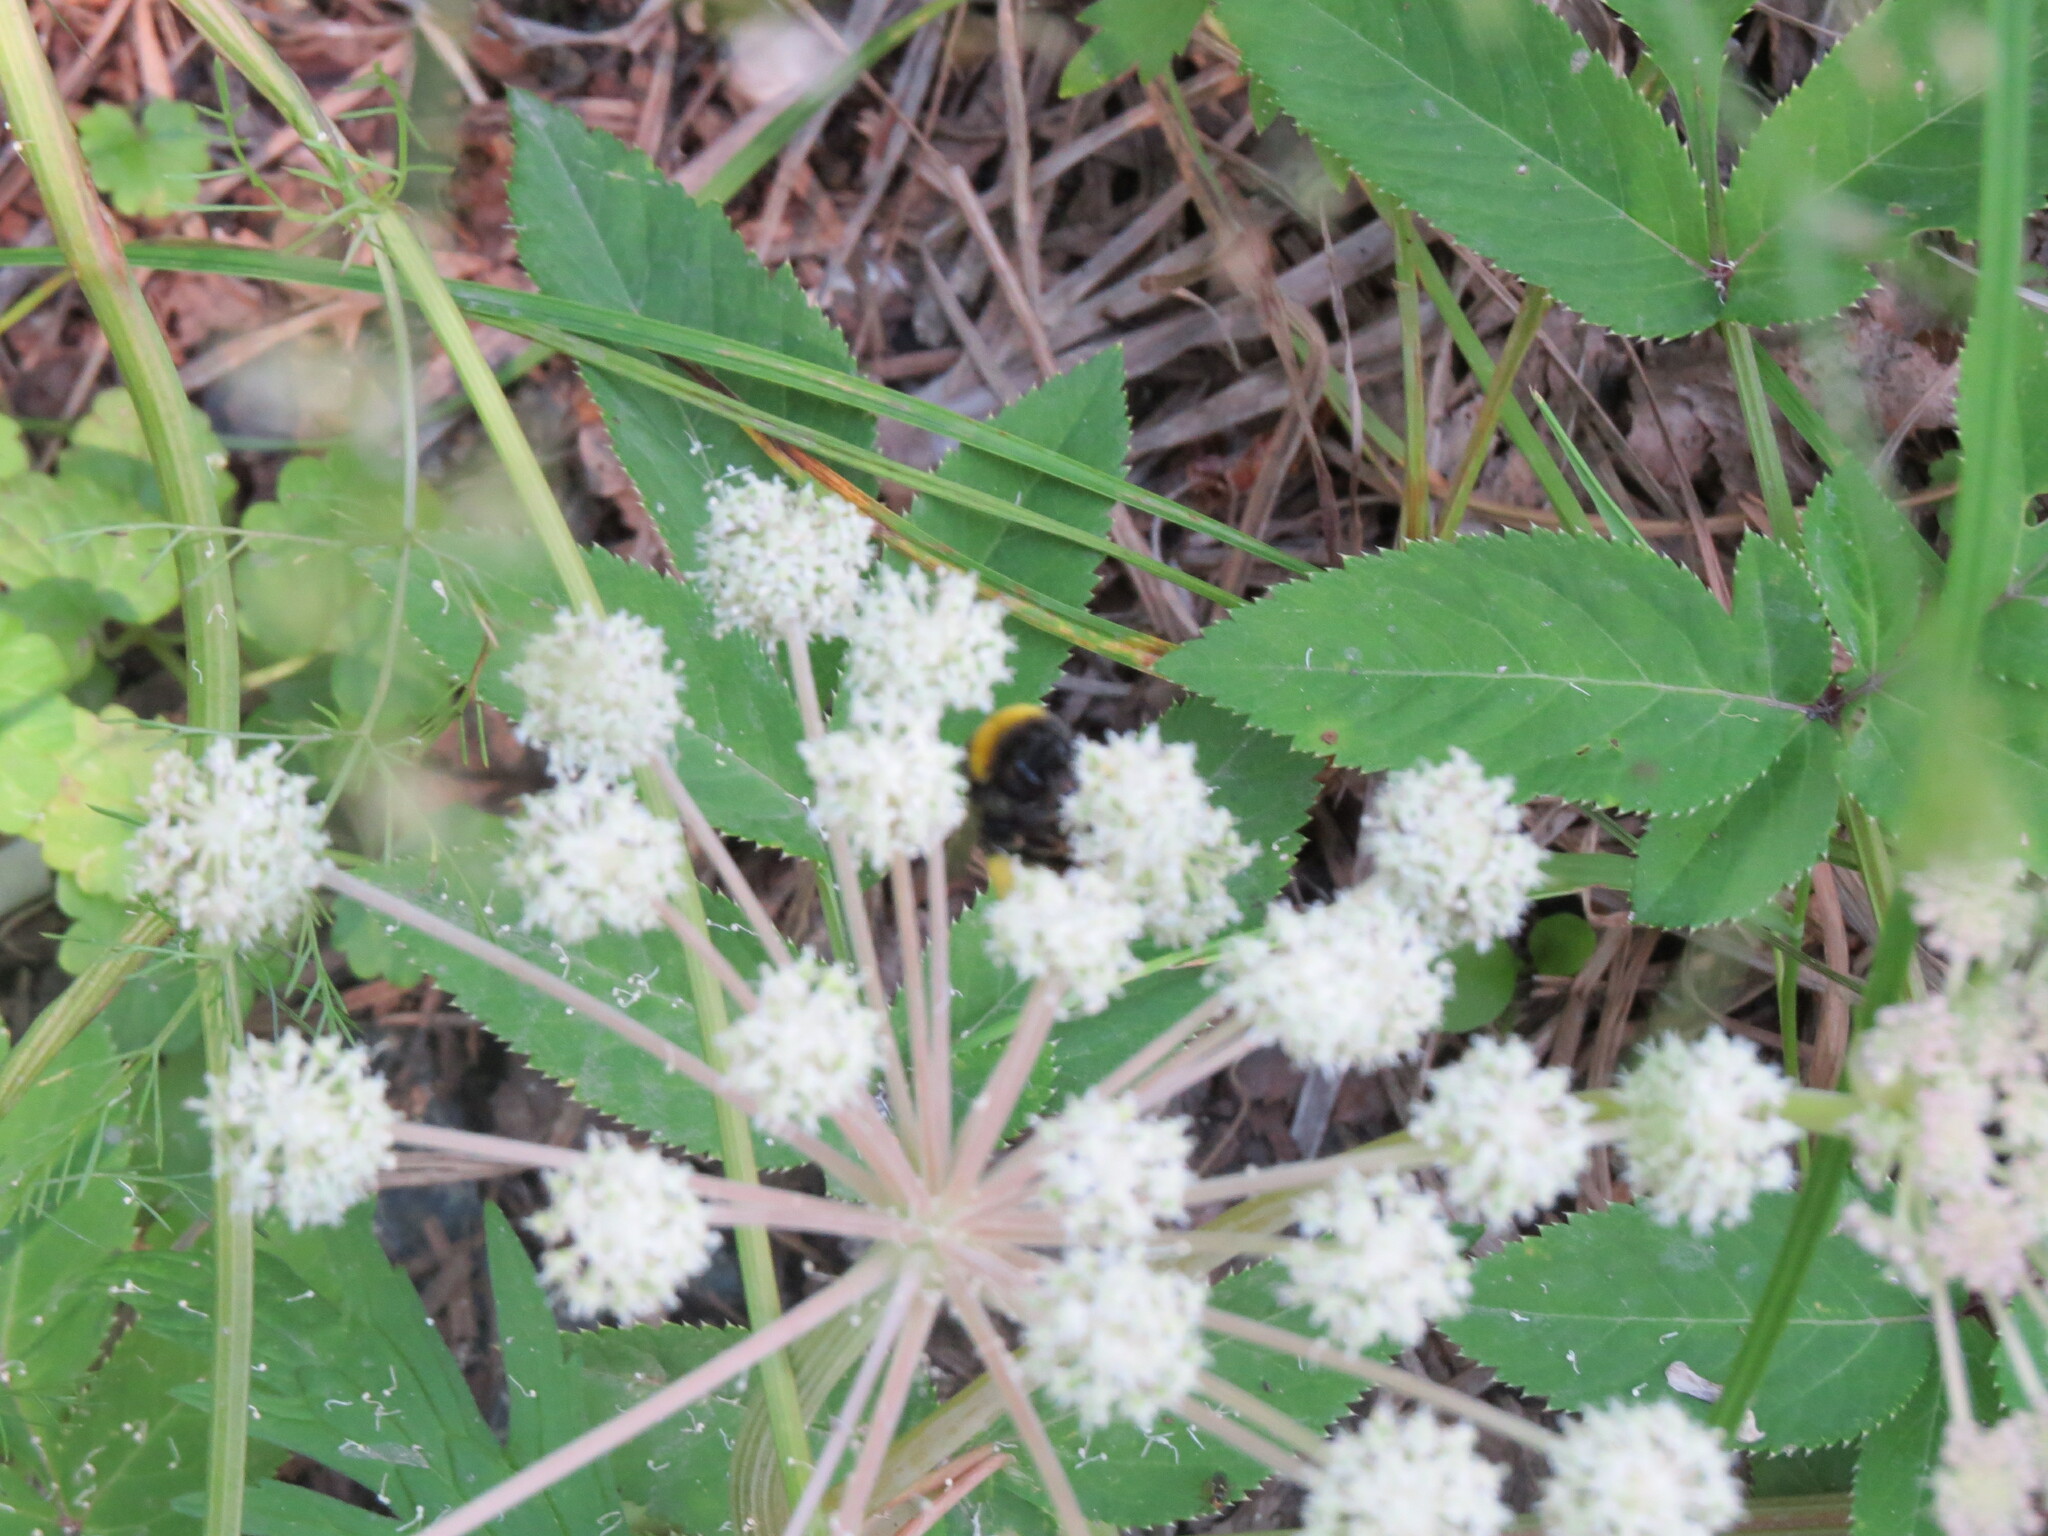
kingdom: Plantae
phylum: Tracheophyta
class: Magnoliopsida
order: Apiales
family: Apiaceae
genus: Angelica
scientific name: Angelica sylvestris
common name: Wild angelica
